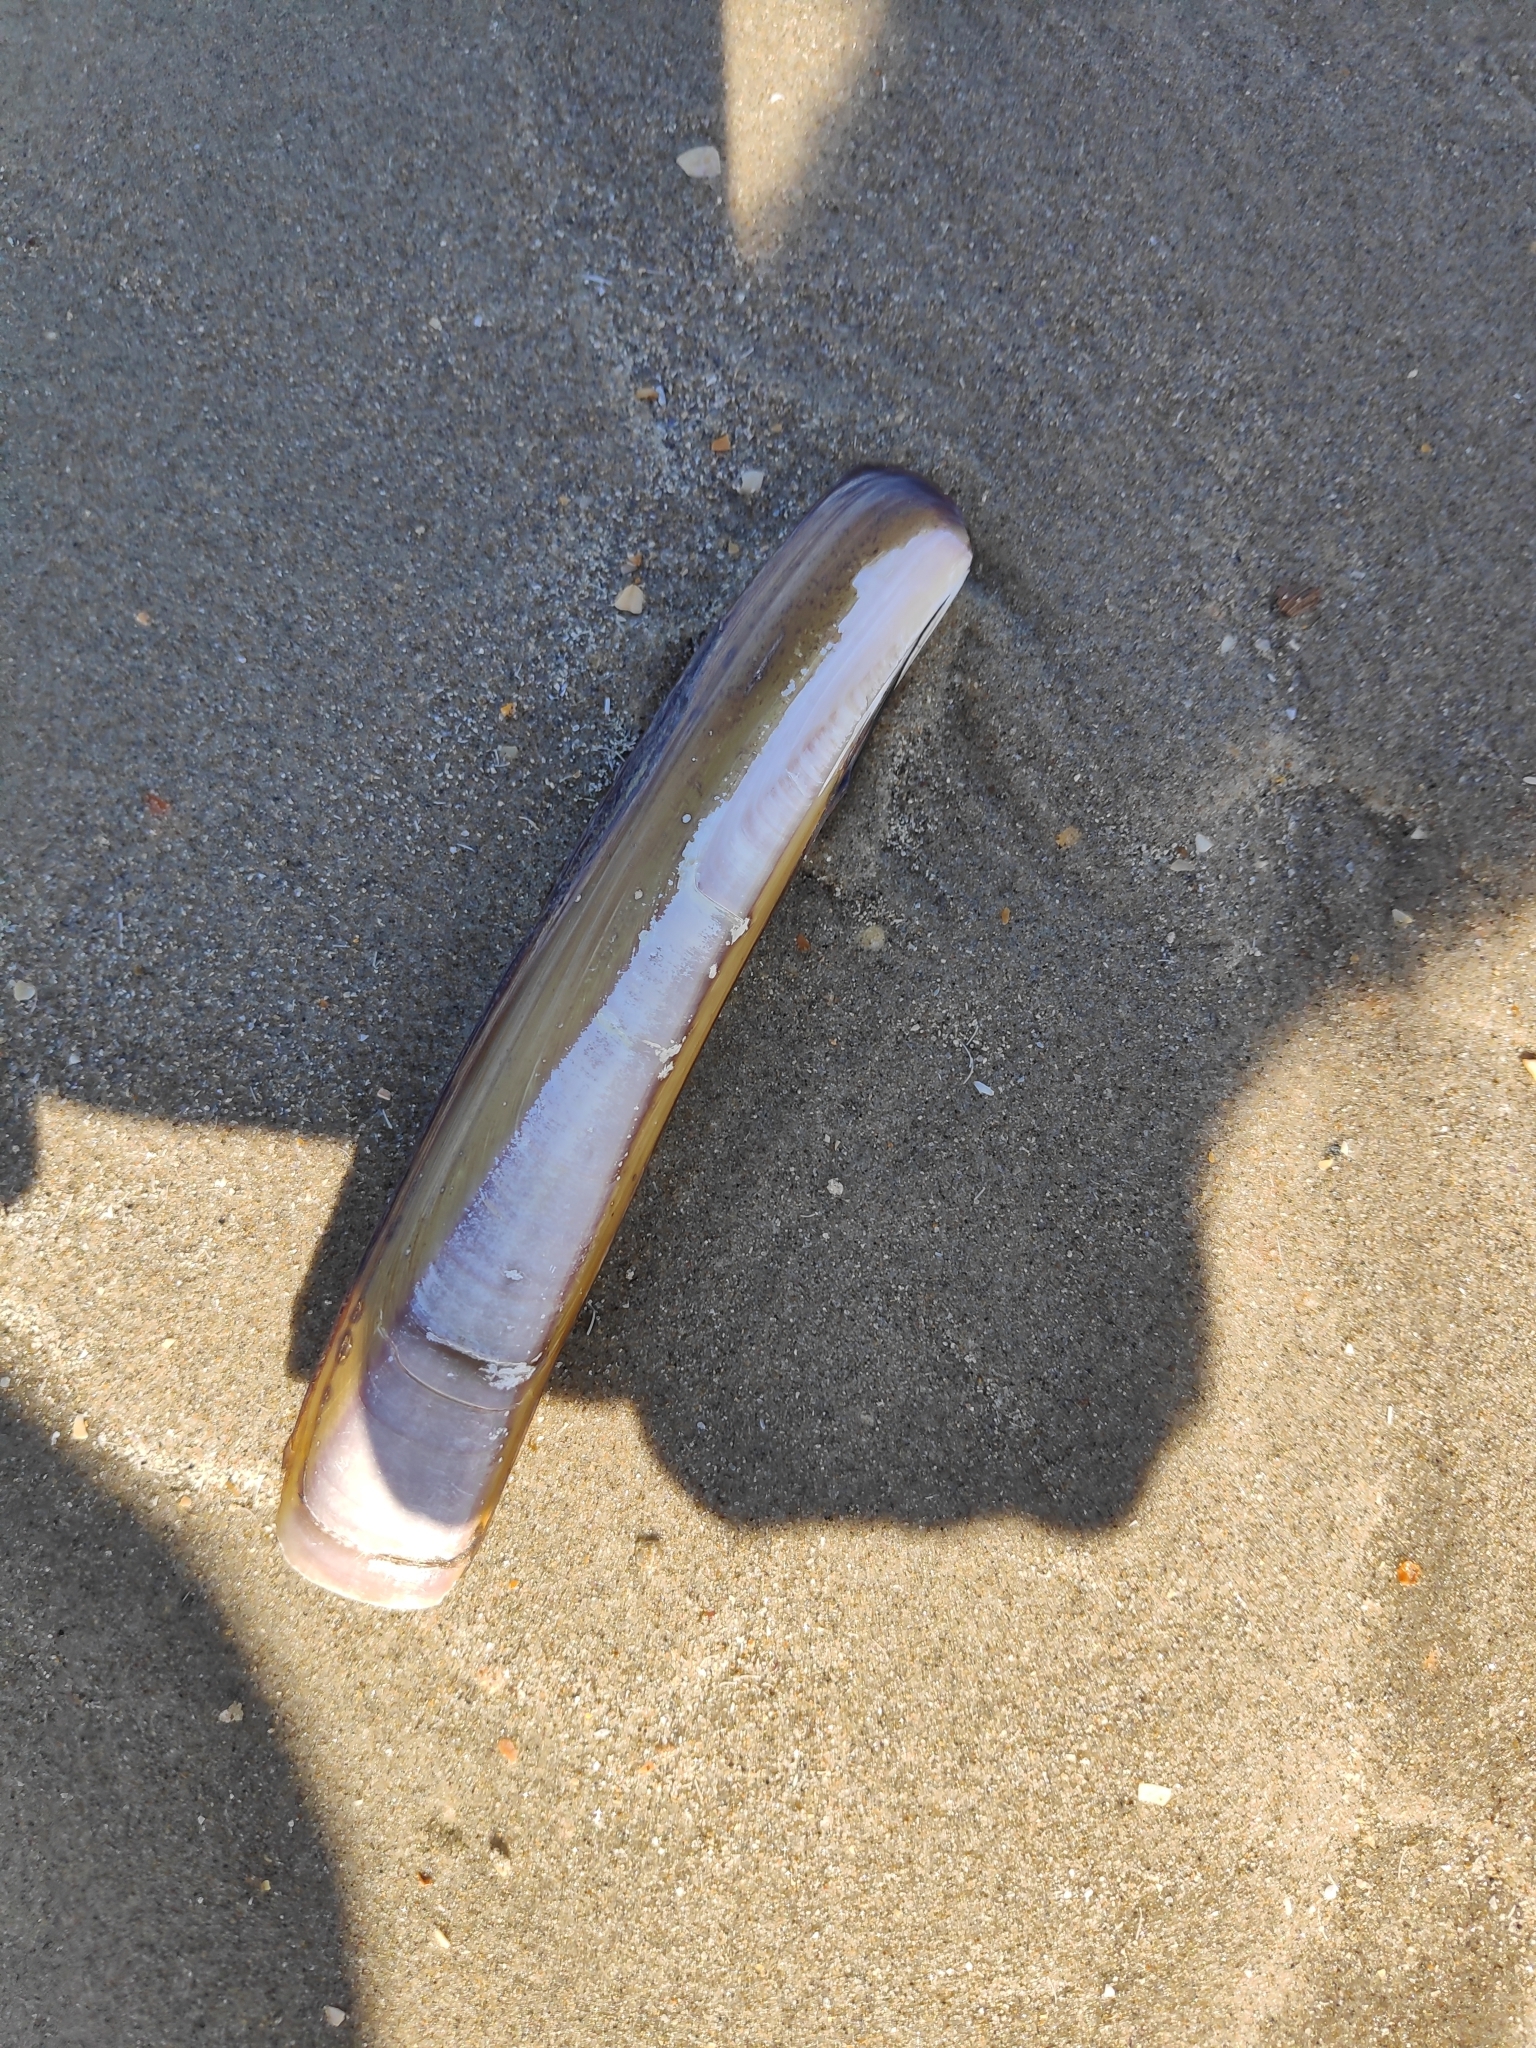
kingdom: Animalia
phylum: Mollusca
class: Bivalvia
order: Adapedonta
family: Pharidae
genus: Ensis
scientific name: Ensis leei
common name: American jack knife clam
